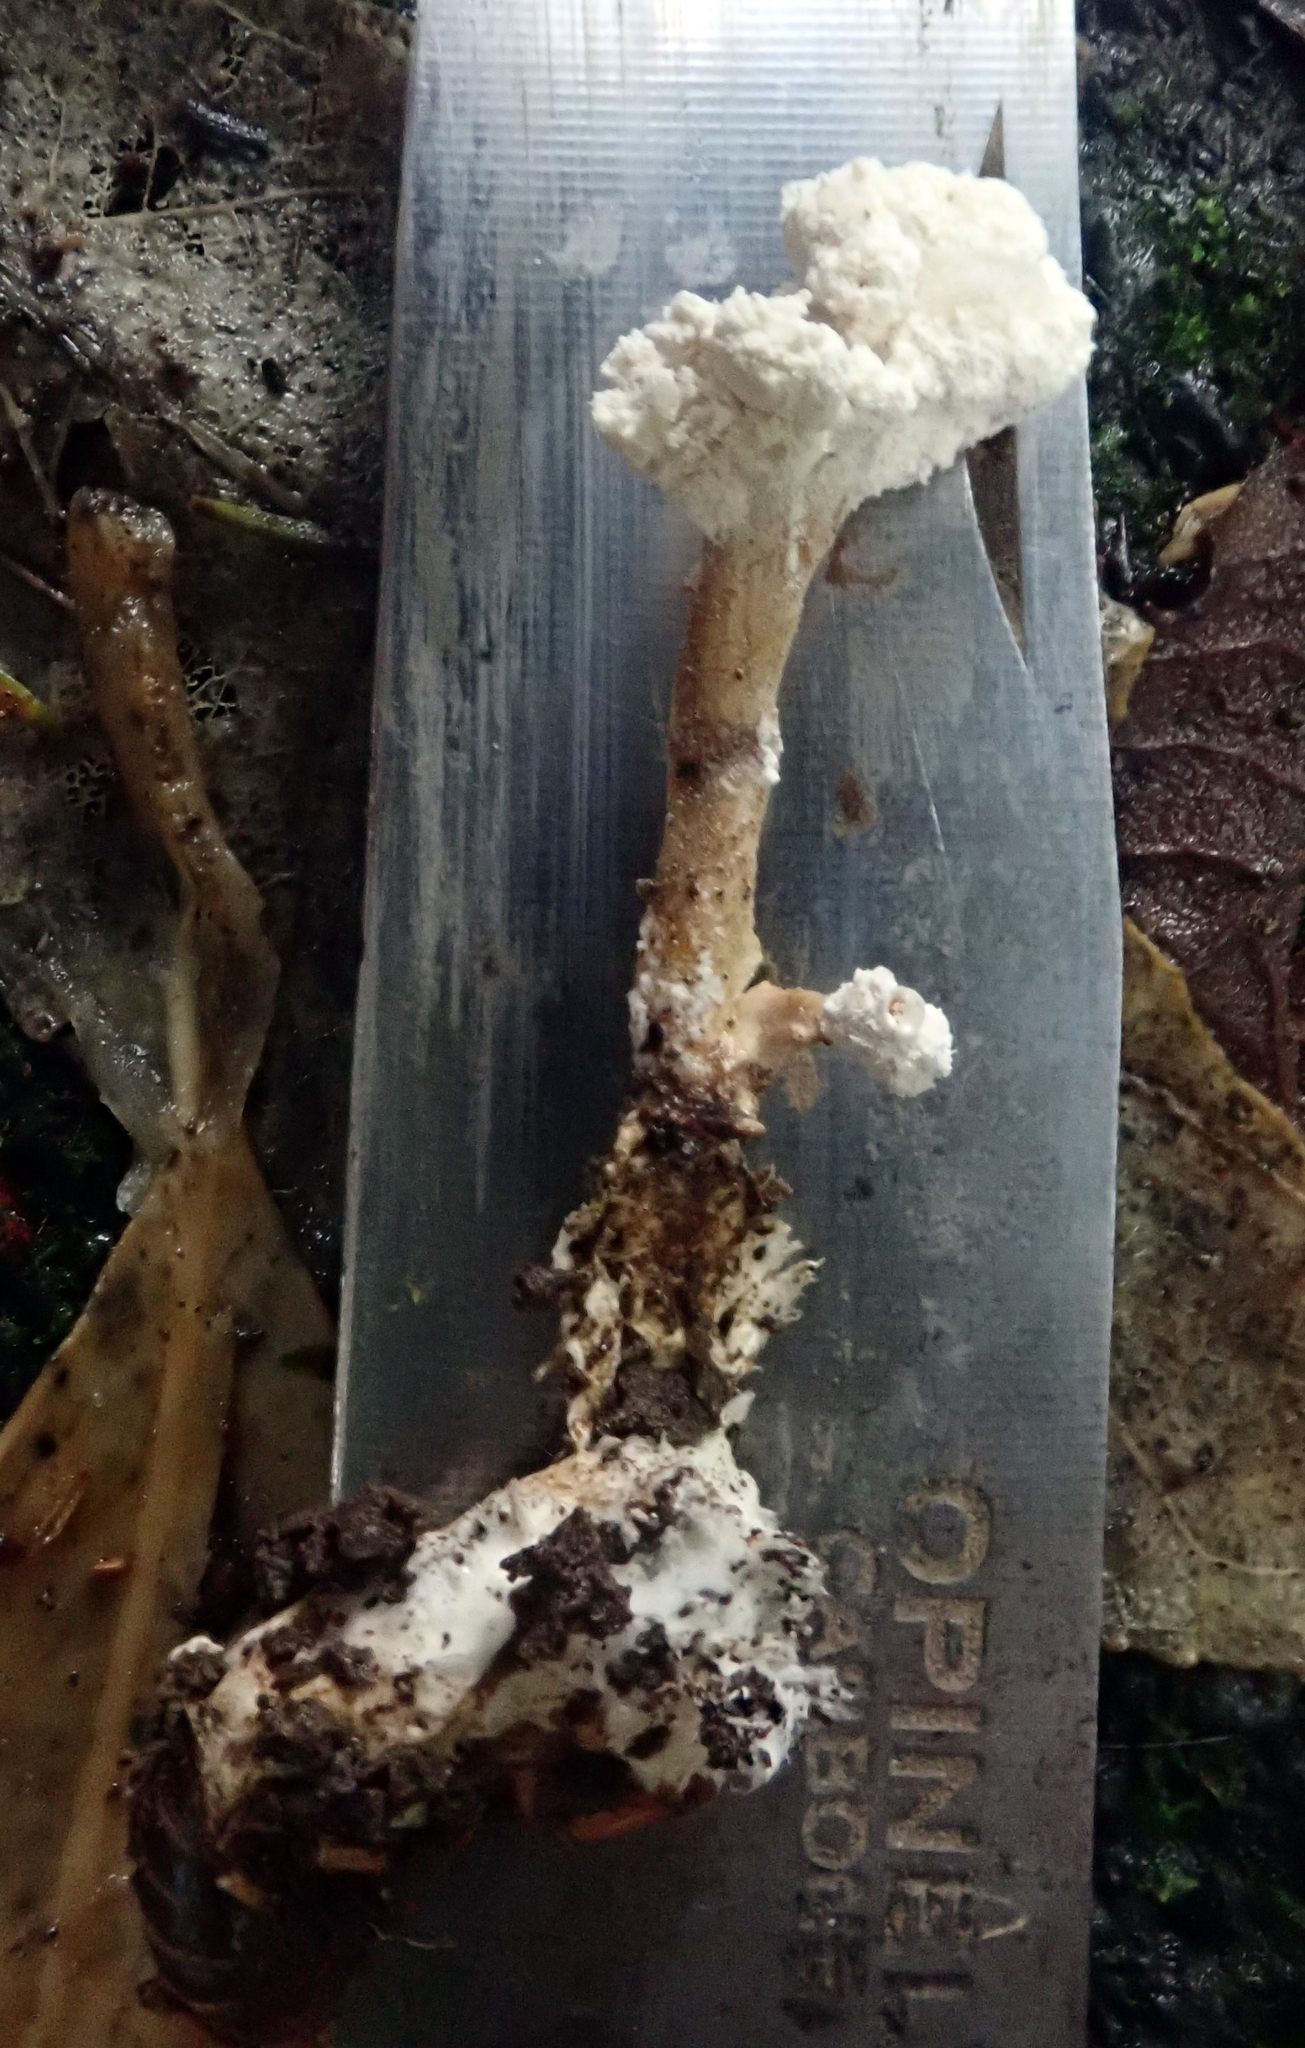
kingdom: Fungi
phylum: Ascomycota
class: Sordariomycetes
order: Hypocreales
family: Cordycipitaceae
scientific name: Cordycipitaceae
